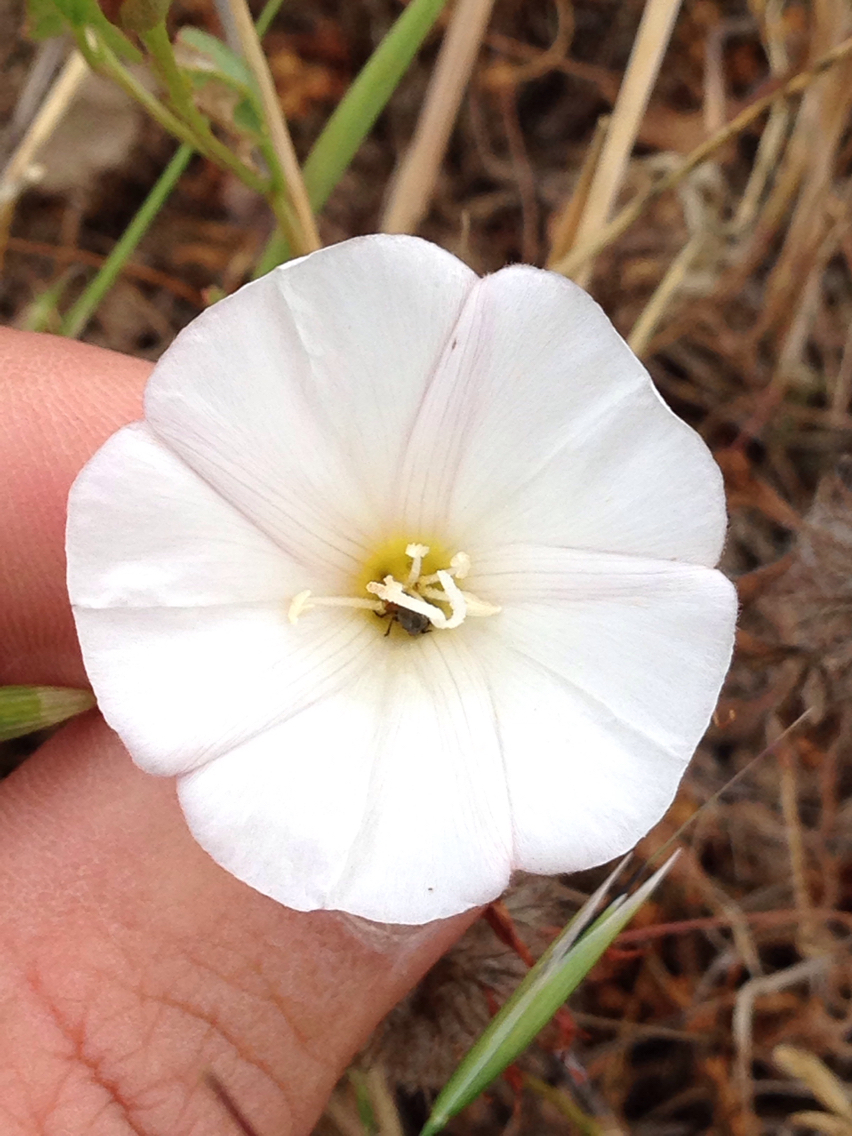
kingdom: Plantae
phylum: Tracheophyta
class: Magnoliopsida
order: Solanales
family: Convolvulaceae
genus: Convolvulus
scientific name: Convolvulus arvensis
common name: Field bindweed
